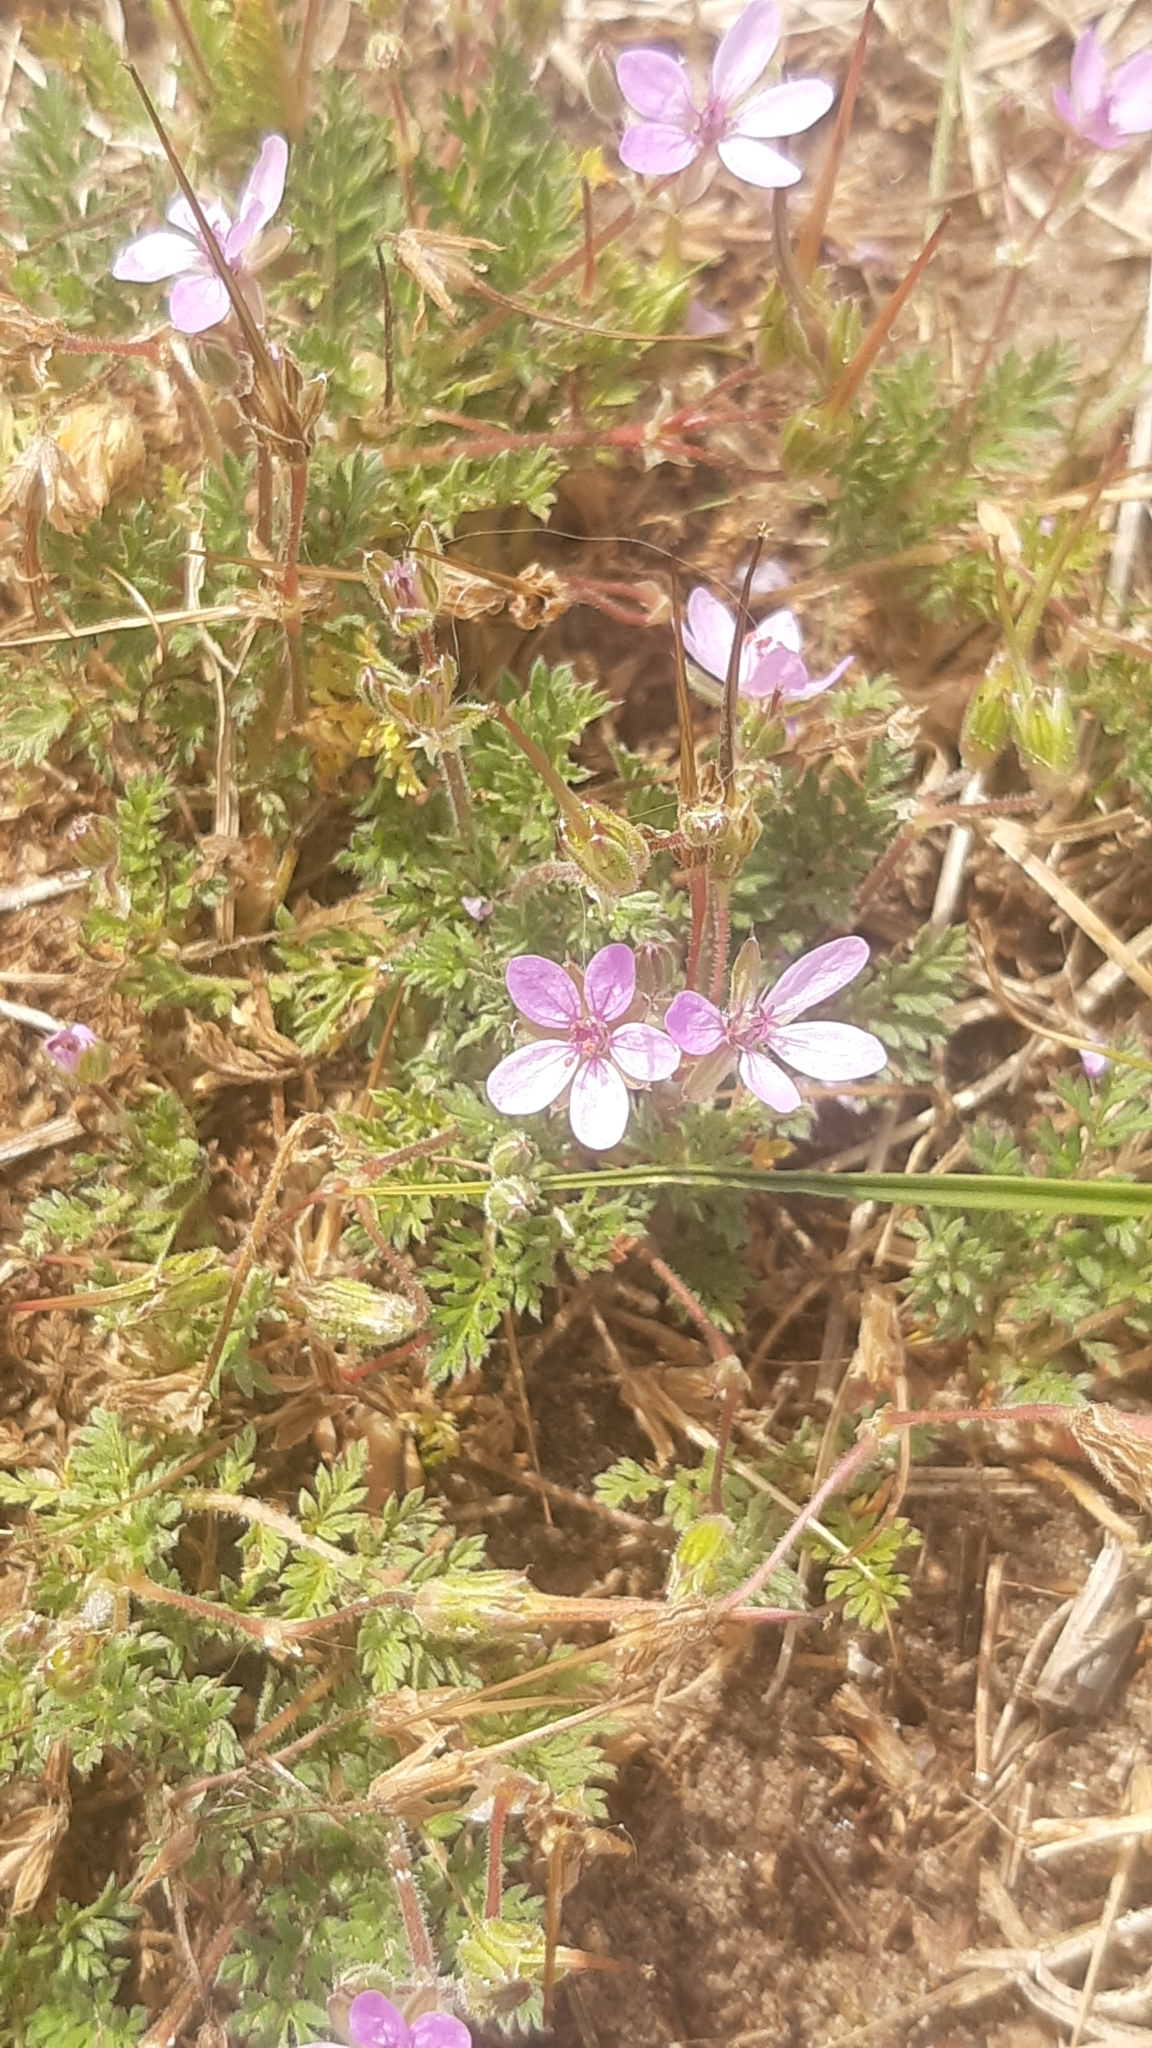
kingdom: Plantae
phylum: Tracheophyta
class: Magnoliopsida
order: Geraniales
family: Geraniaceae
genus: Erodium
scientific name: Erodium cicutarium
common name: Common stork's-bill
